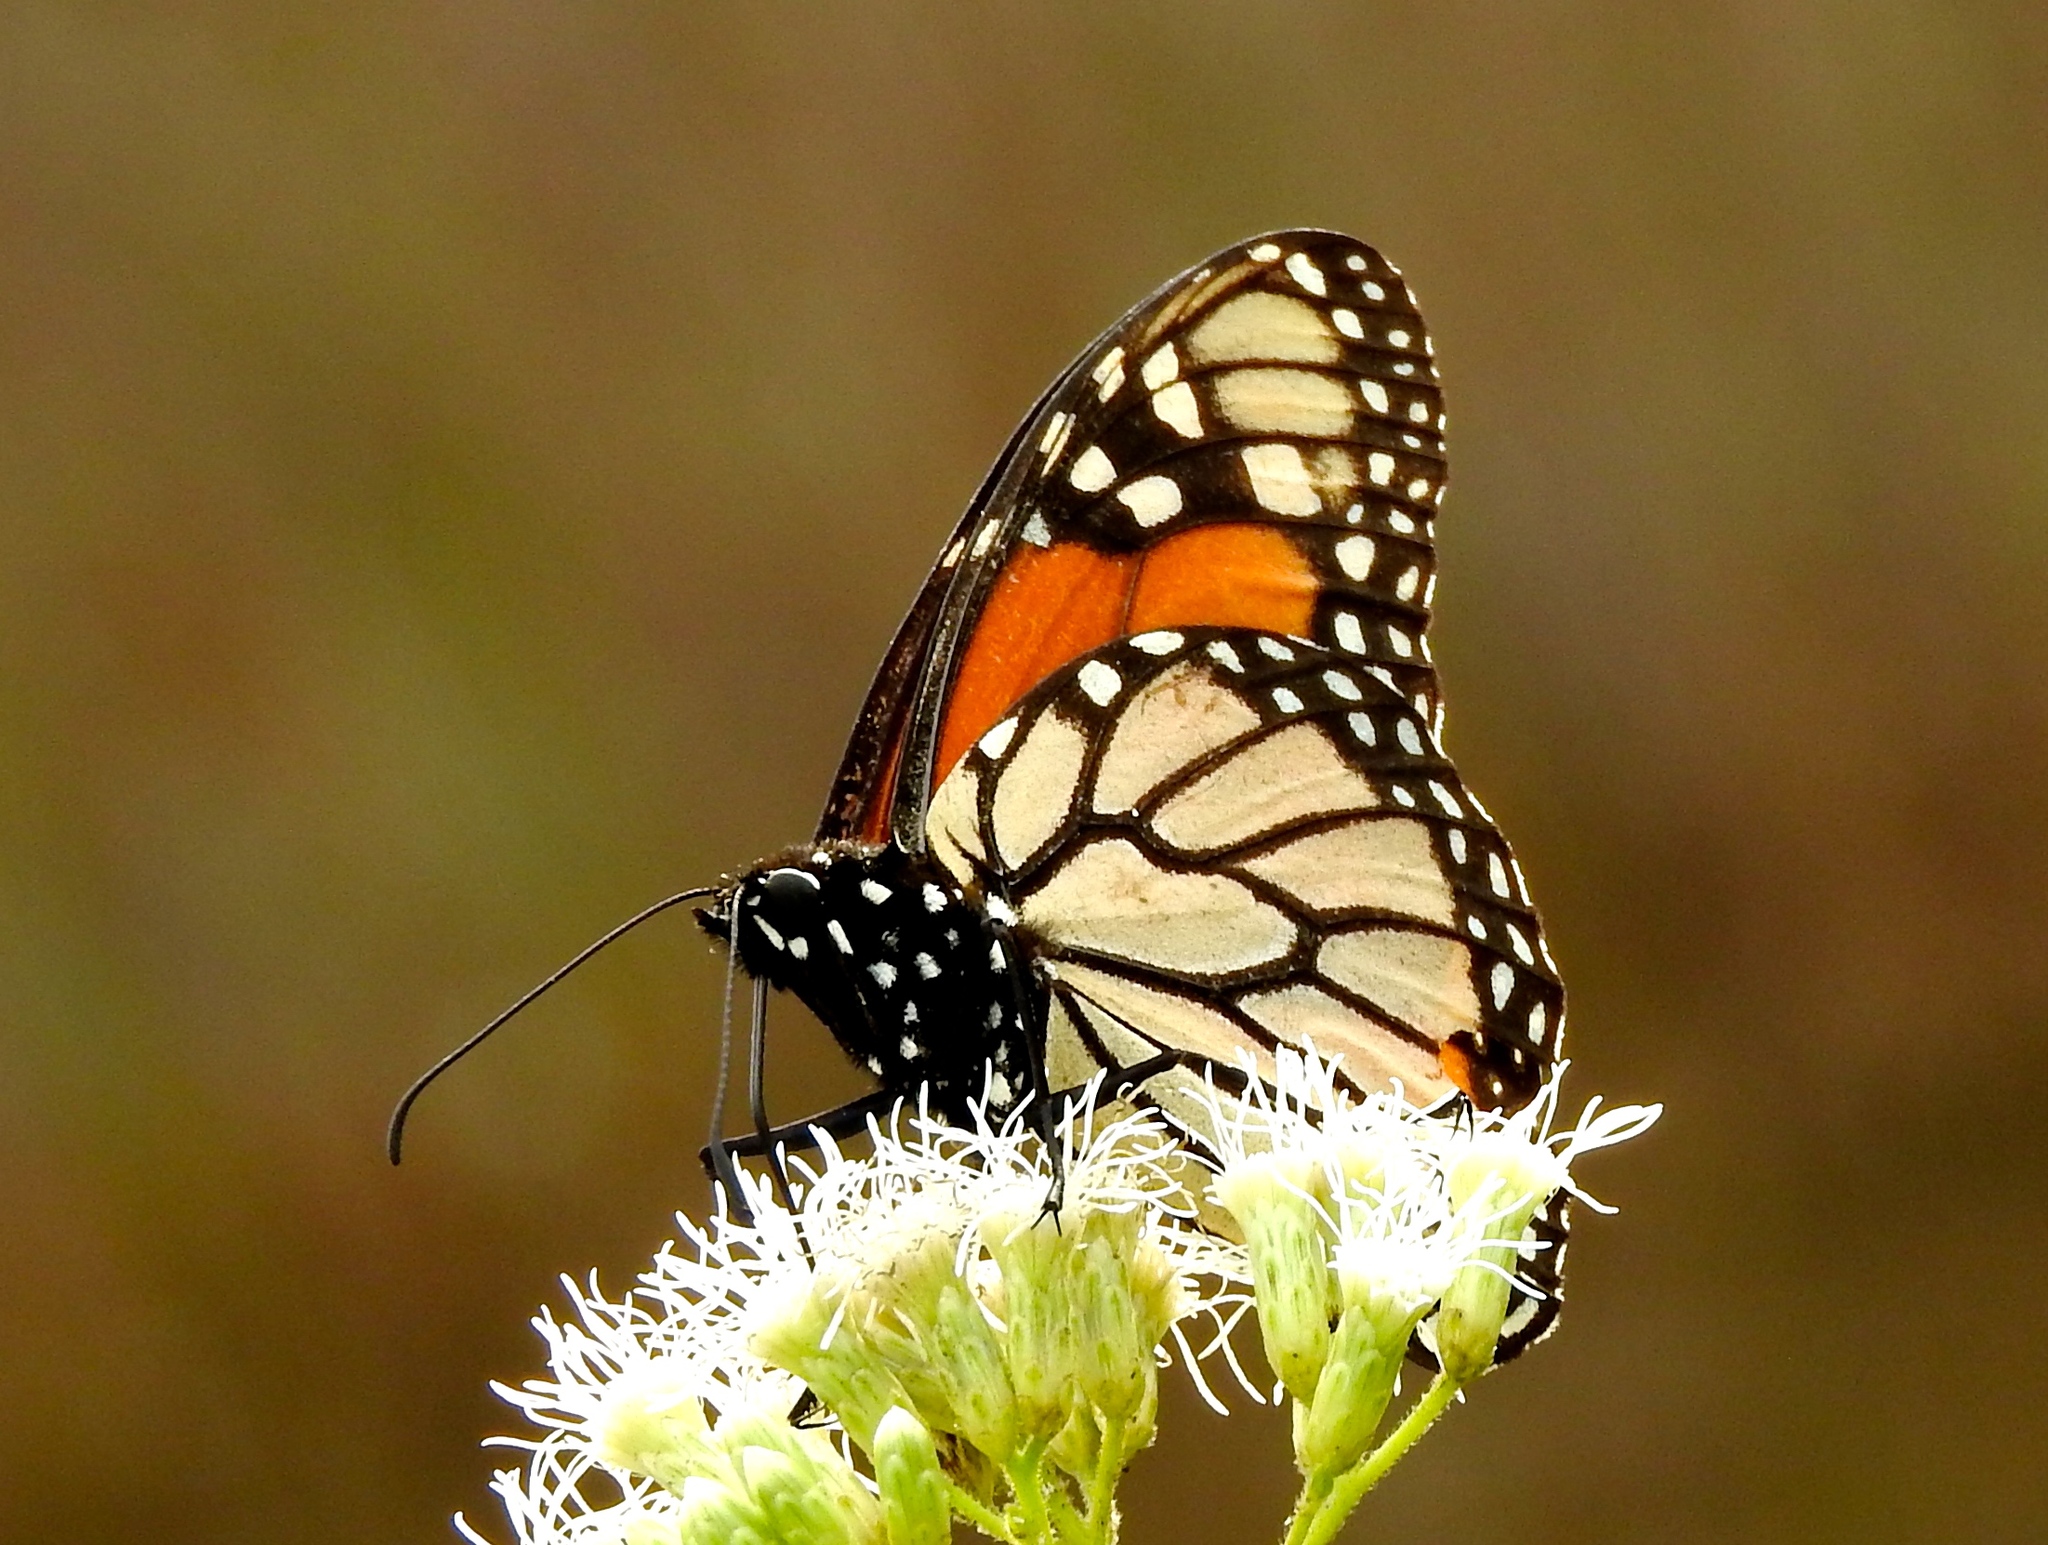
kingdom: Animalia
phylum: Arthropoda
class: Insecta
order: Lepidoptera
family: Nymphalidae
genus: Danaus
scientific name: Danaus plexippus
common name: Monarch
